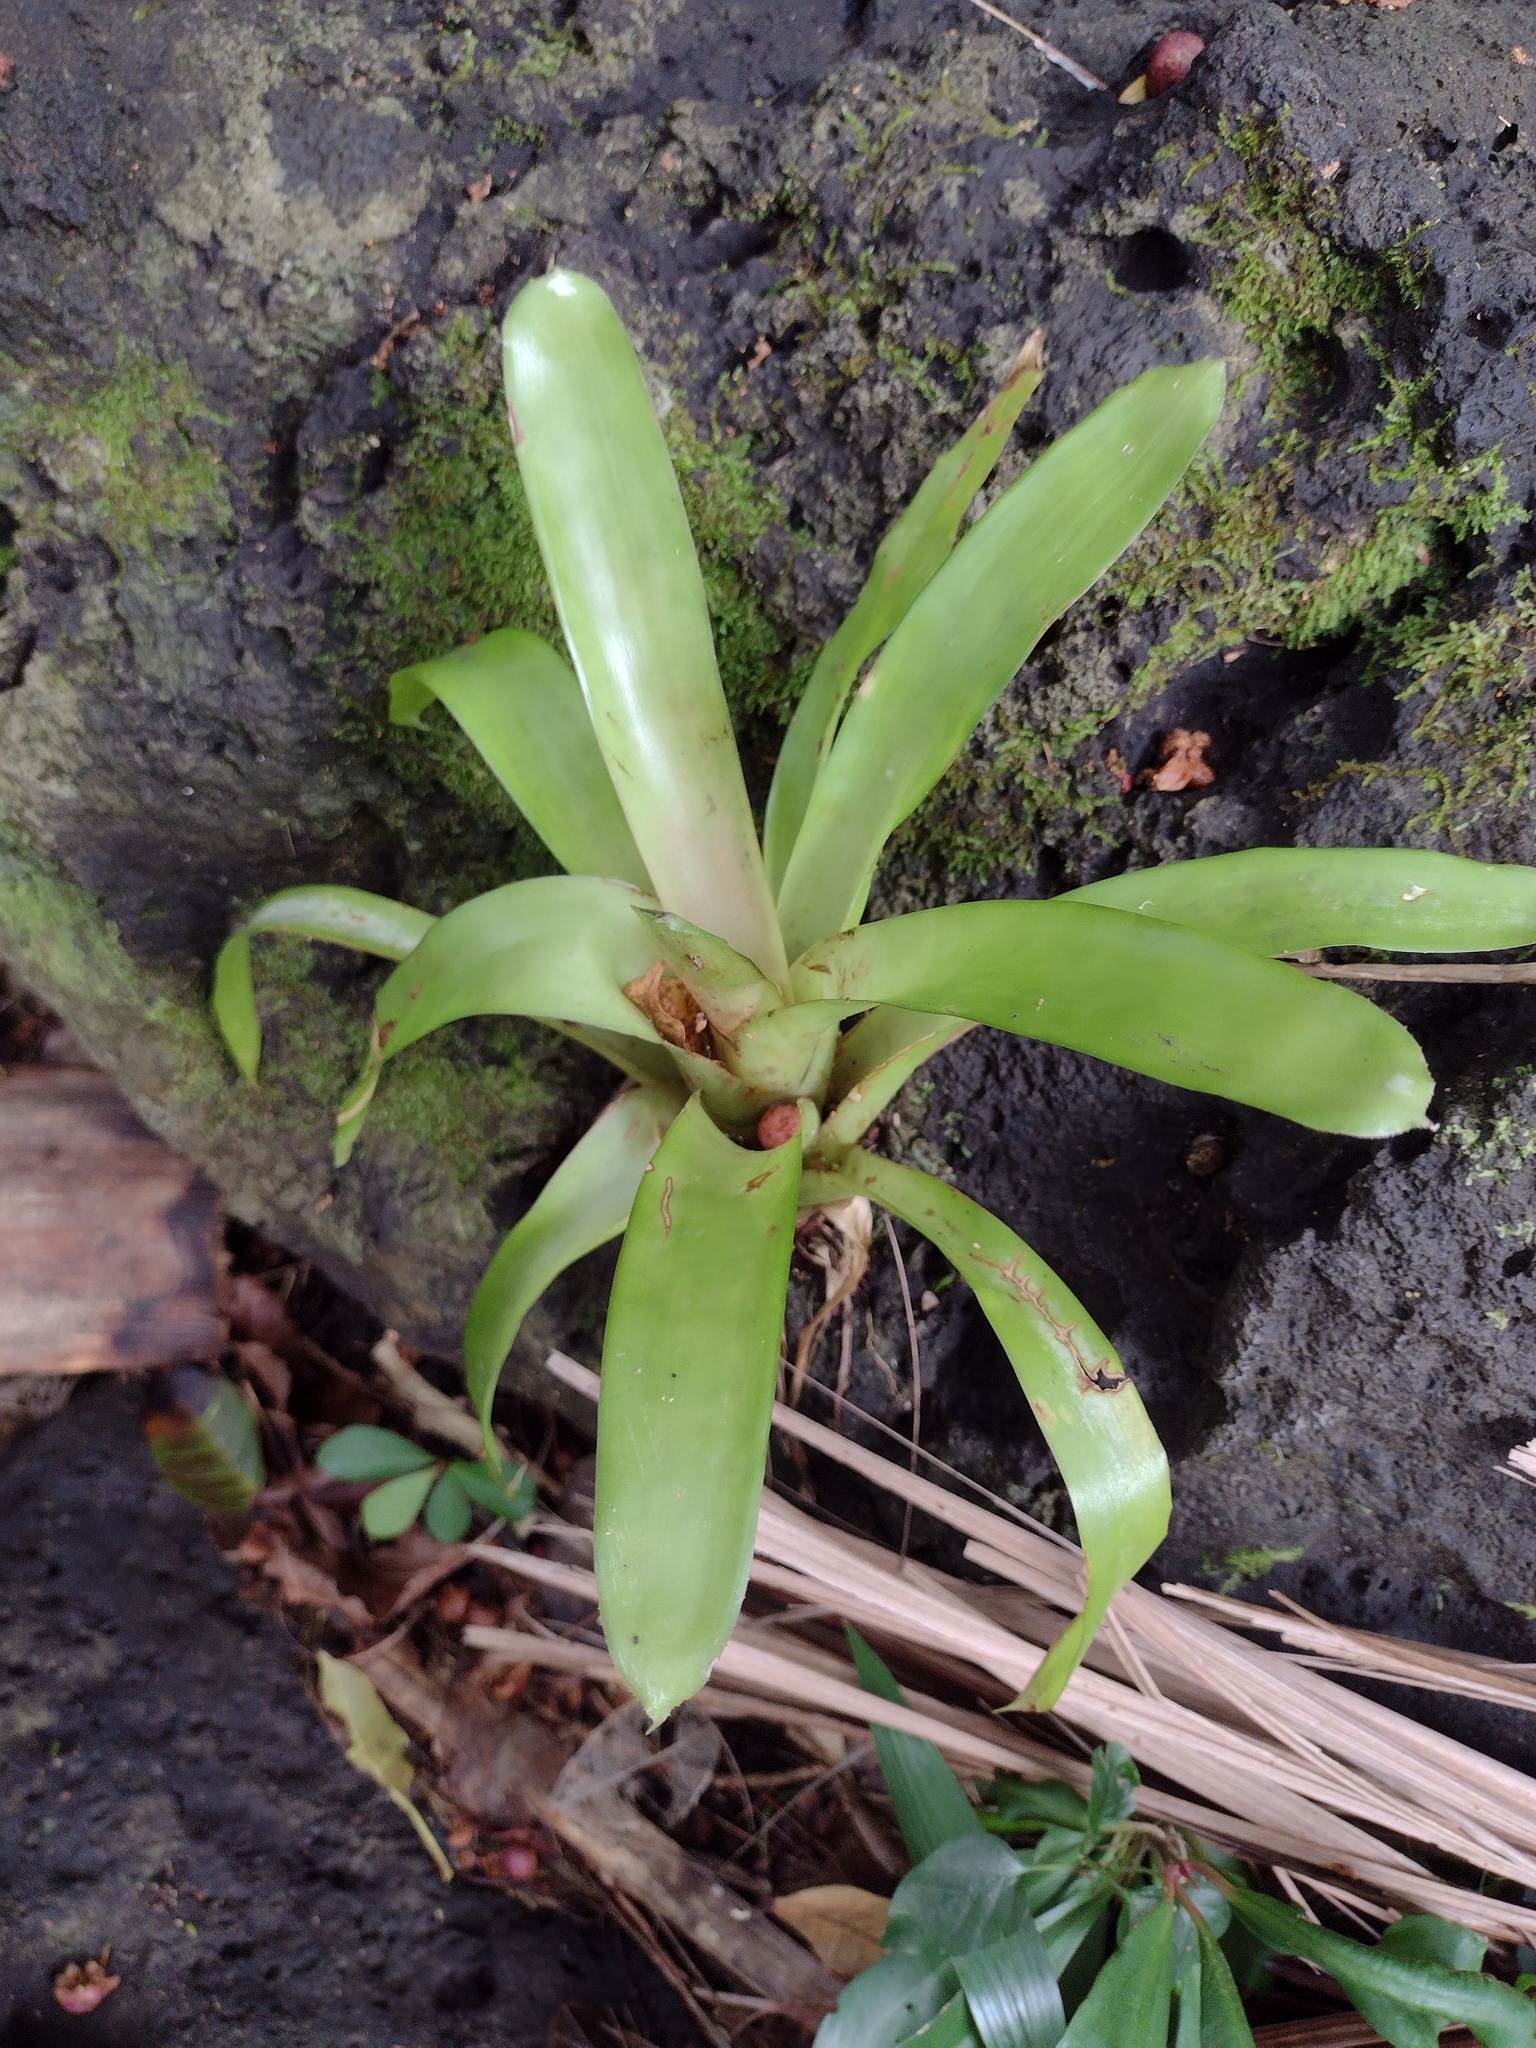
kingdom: Plantae
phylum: Tracheophyta
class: Liliopsida
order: Poales
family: Bromeliaceae
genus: Guzmania
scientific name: Guzmania monostachia
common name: West indian tufted airplant
